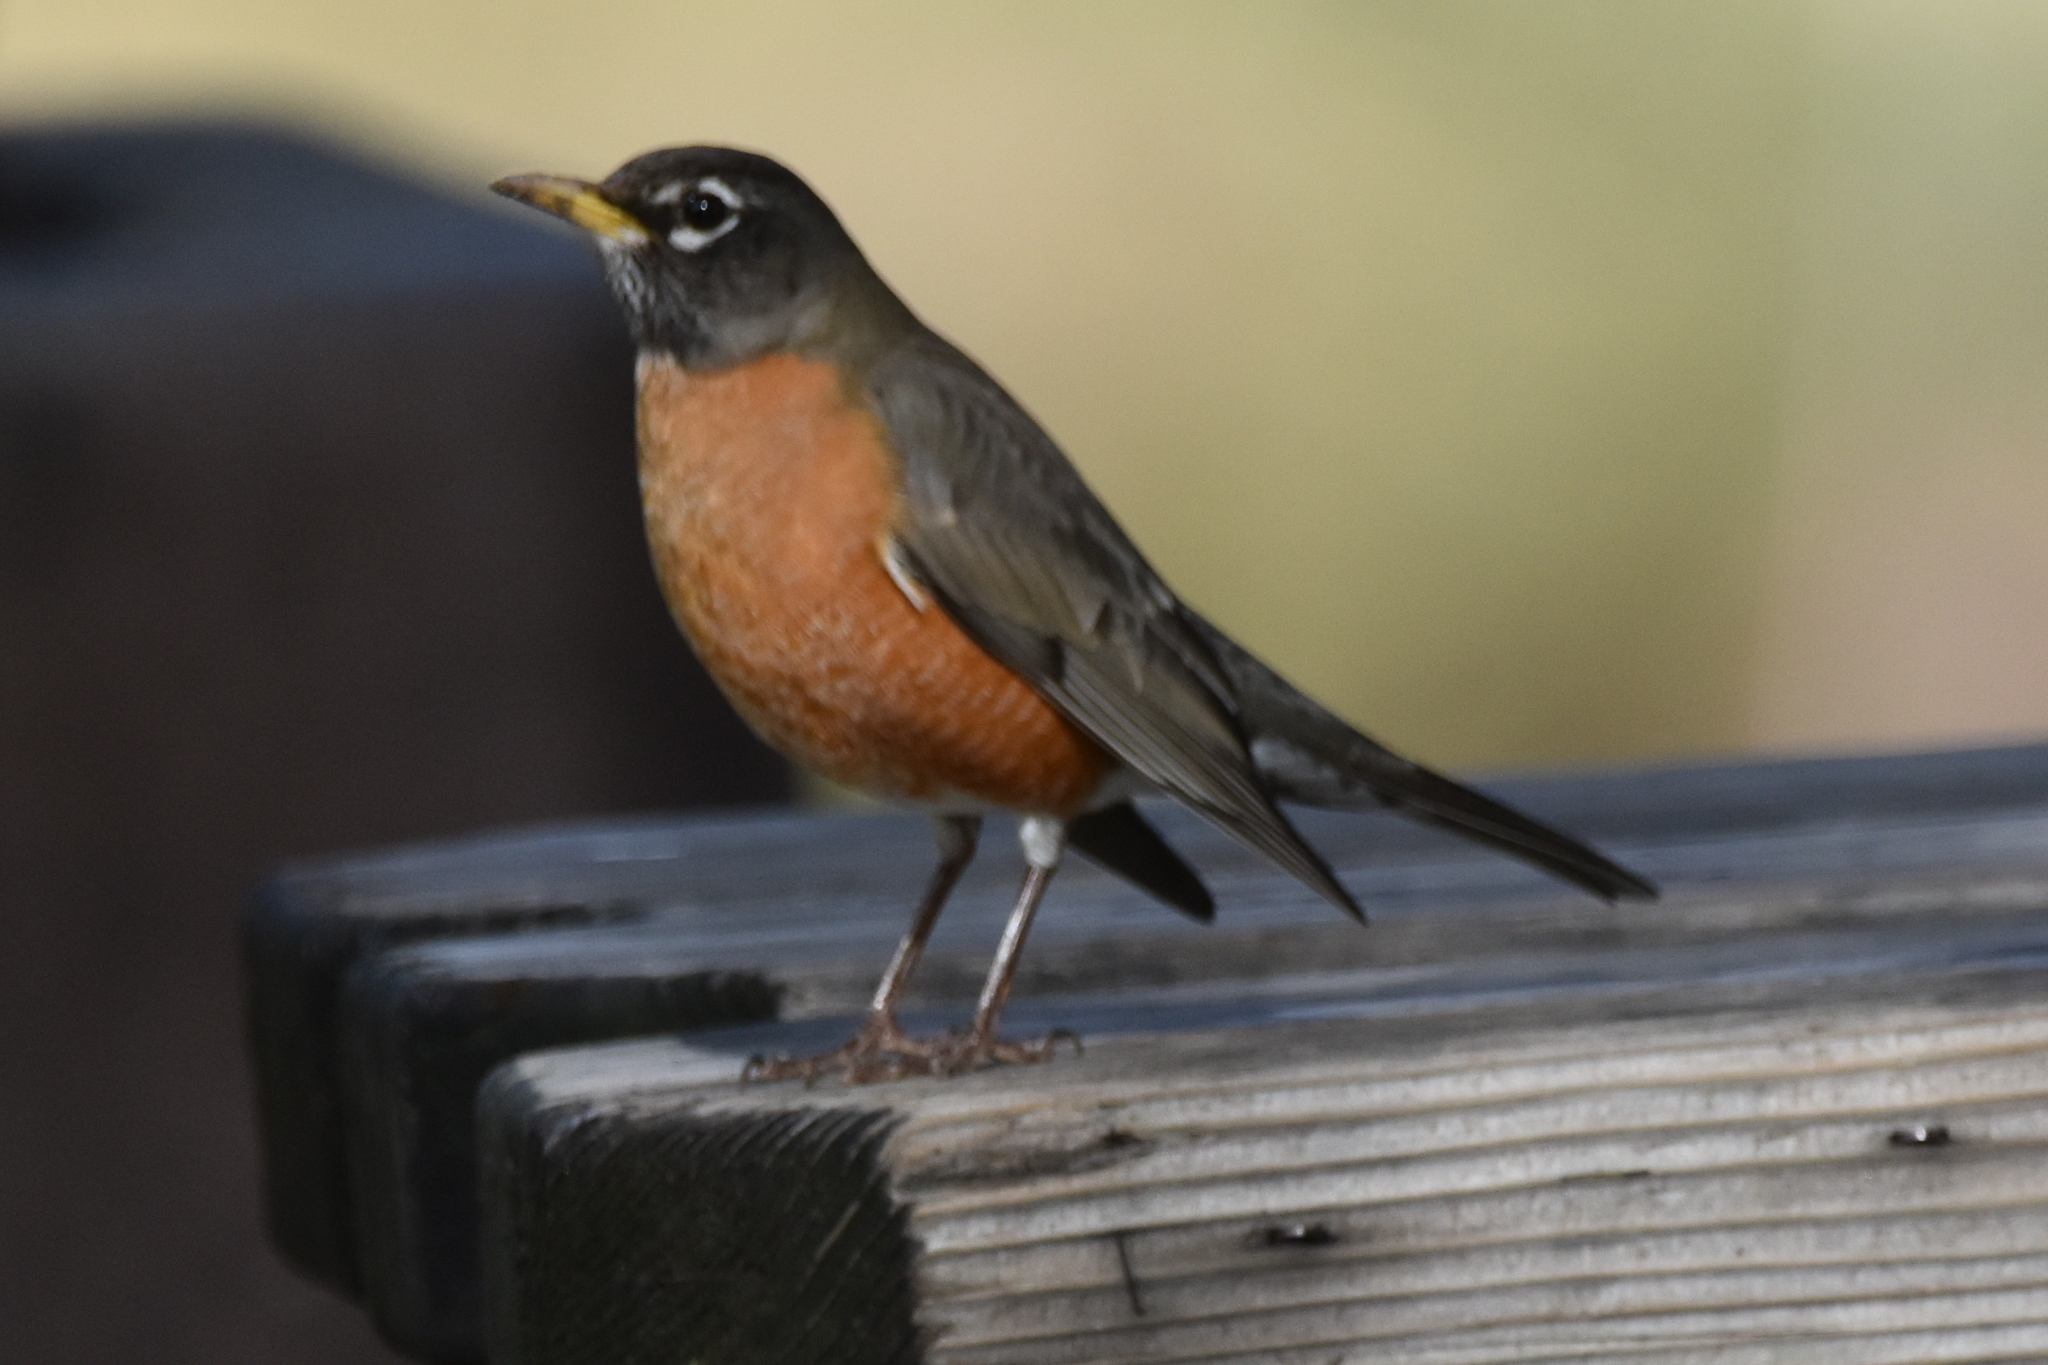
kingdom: Animalia
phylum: Chordata
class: Aves
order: Passeriformes
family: Turdidae
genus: Turdus
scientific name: Turdus migratorius
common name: American robin
